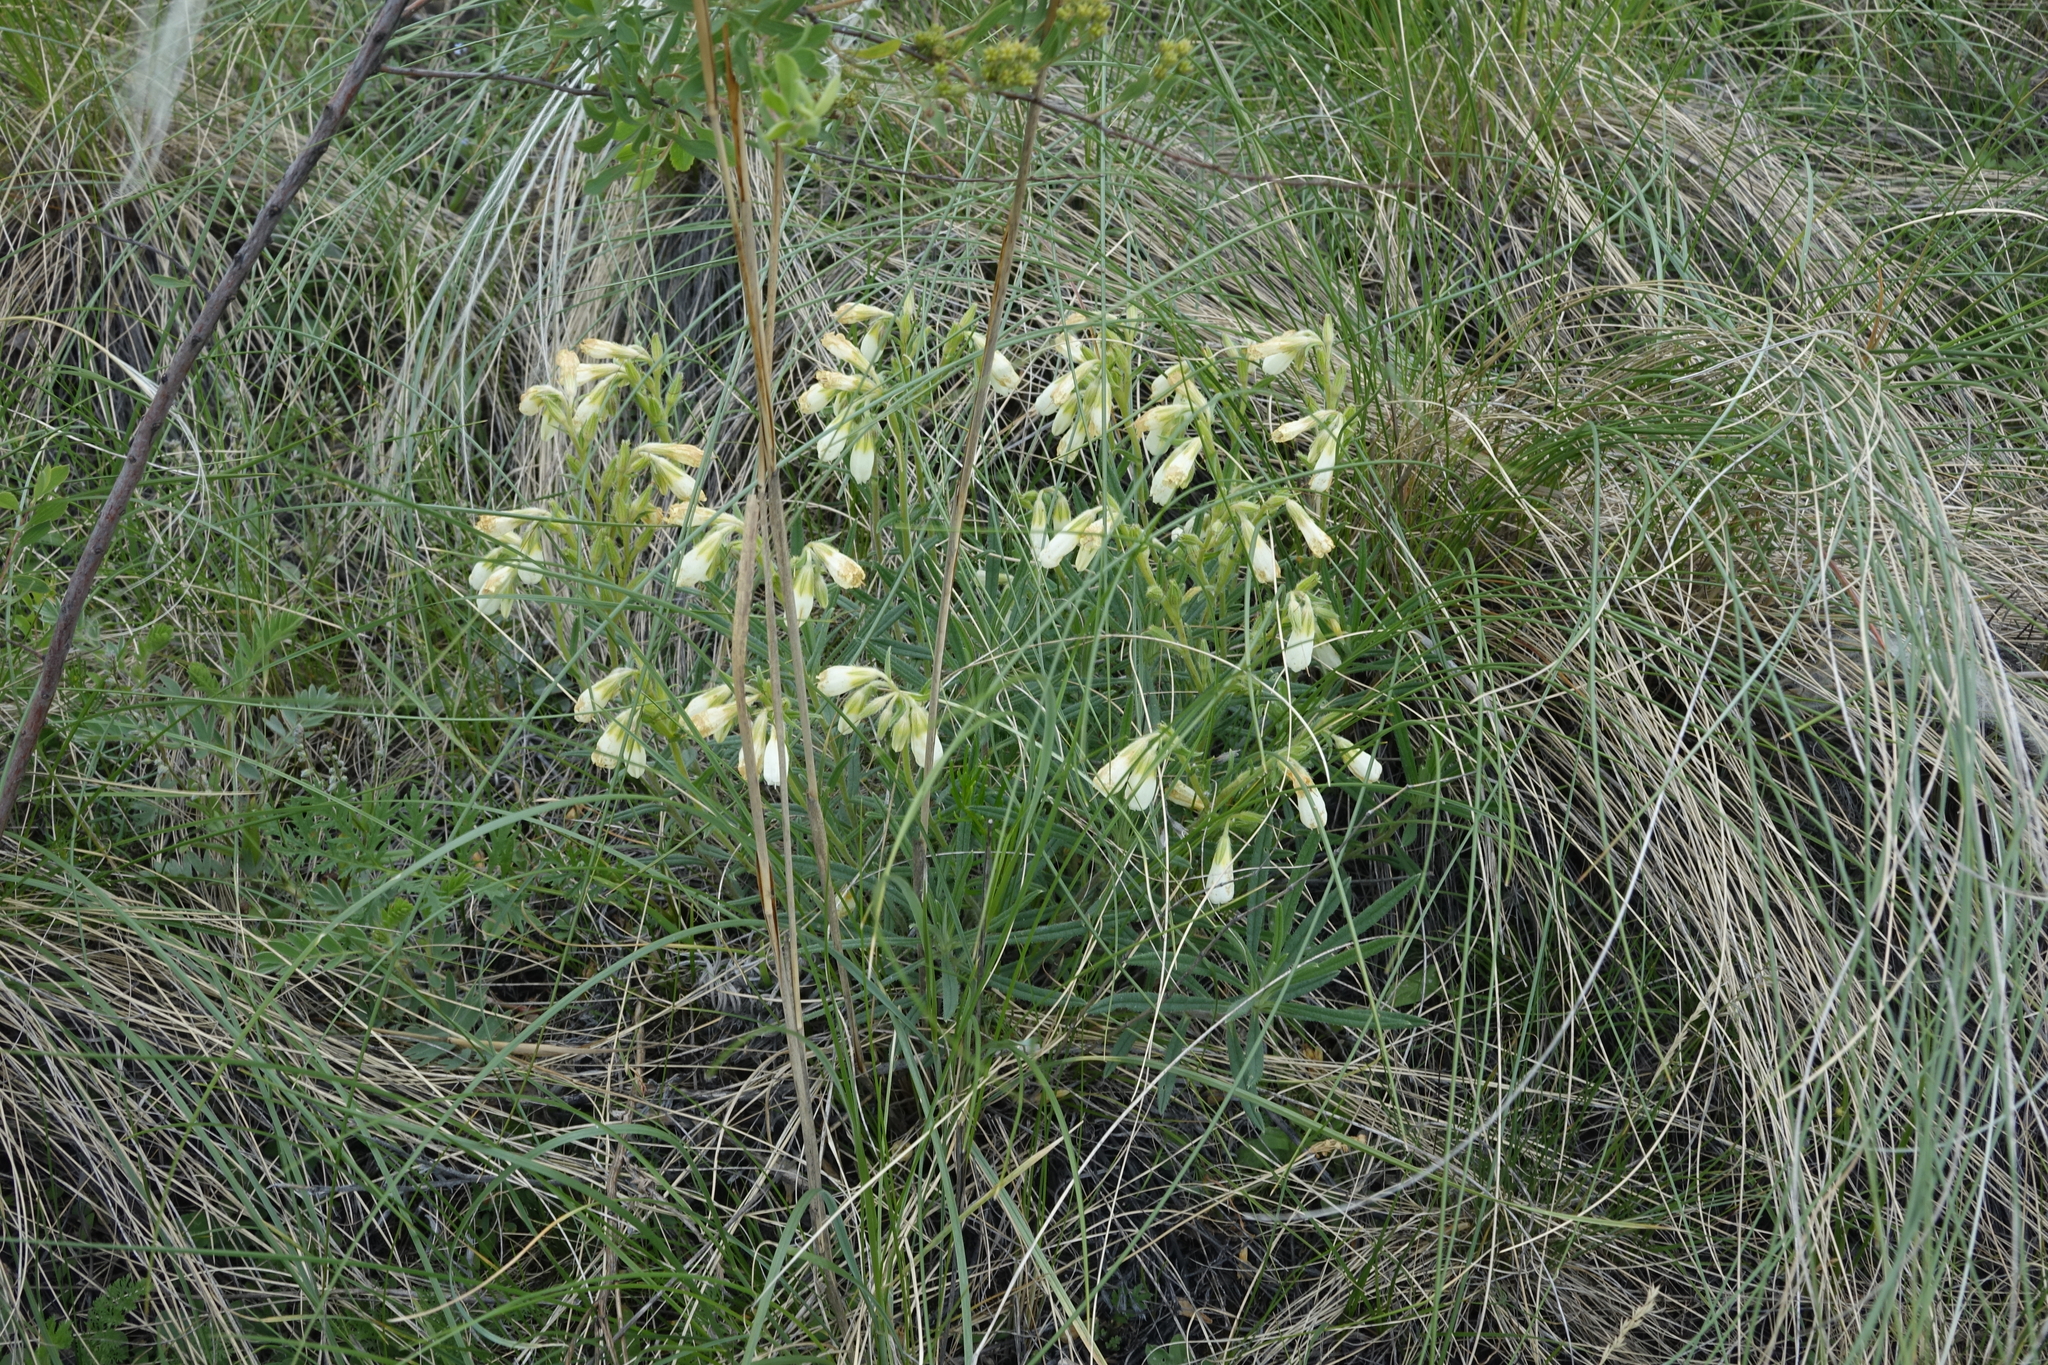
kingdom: Plantae
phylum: Tracheophyta
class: Magnoliopsida
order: Boraginales
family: Boraginaceae
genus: Onosma
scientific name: Onosma simplicissima
